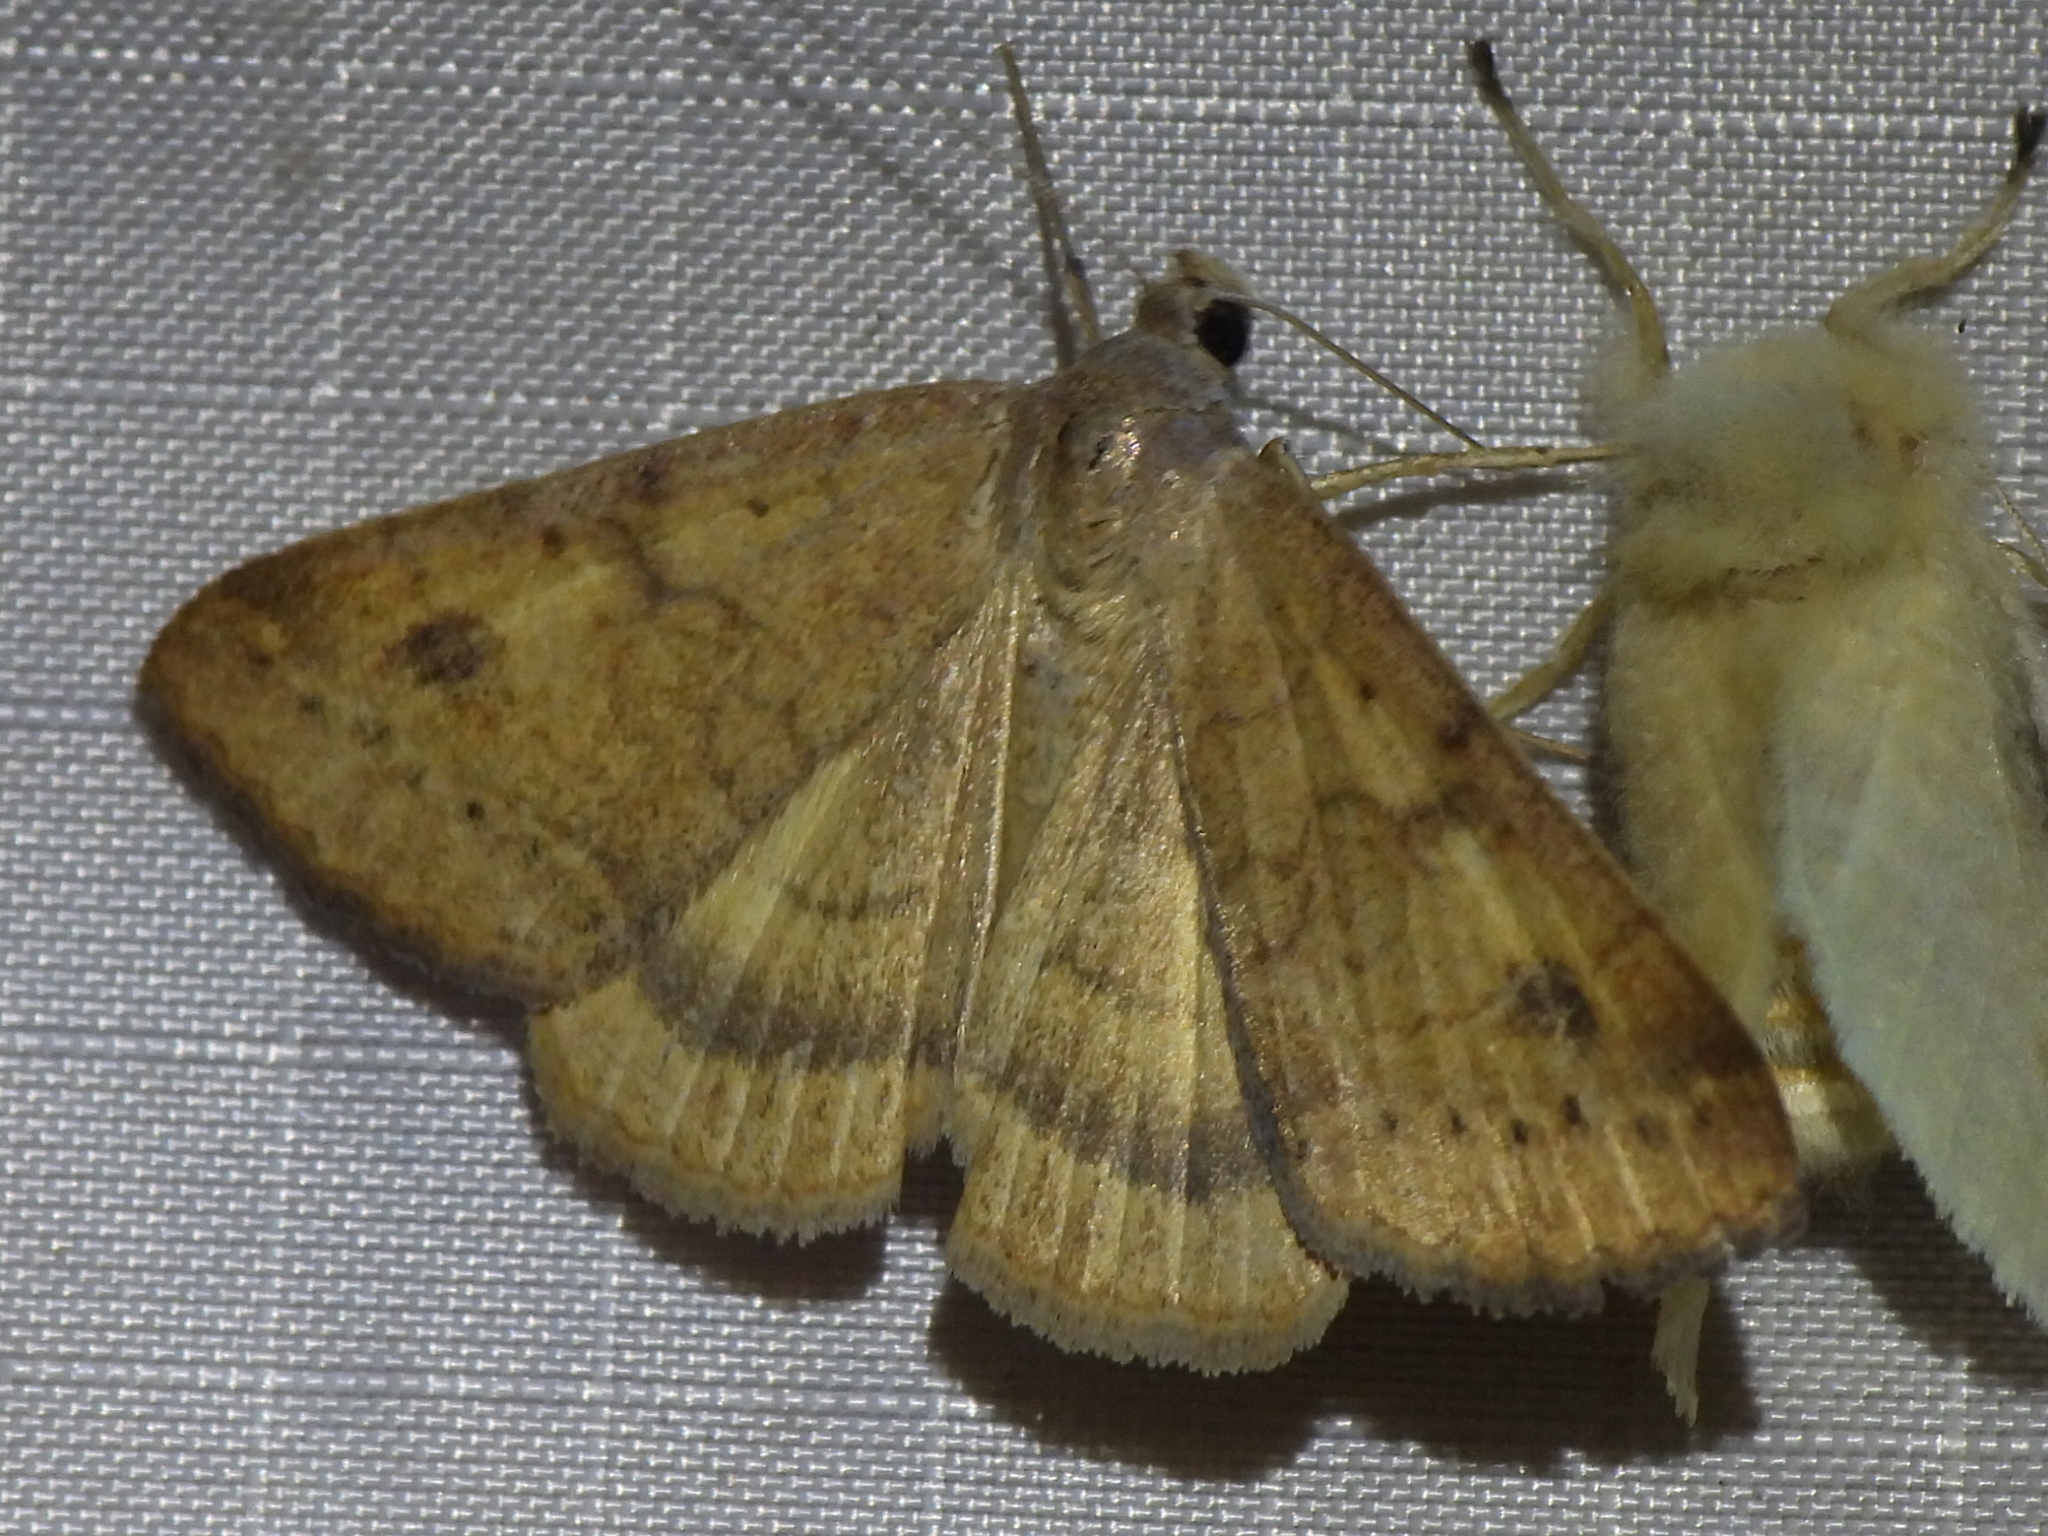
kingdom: Animalia
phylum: Arthropoda
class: Insecta
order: Lepidoptera
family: Erebidae
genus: Caenurgia
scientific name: Caenurgia chloropha
